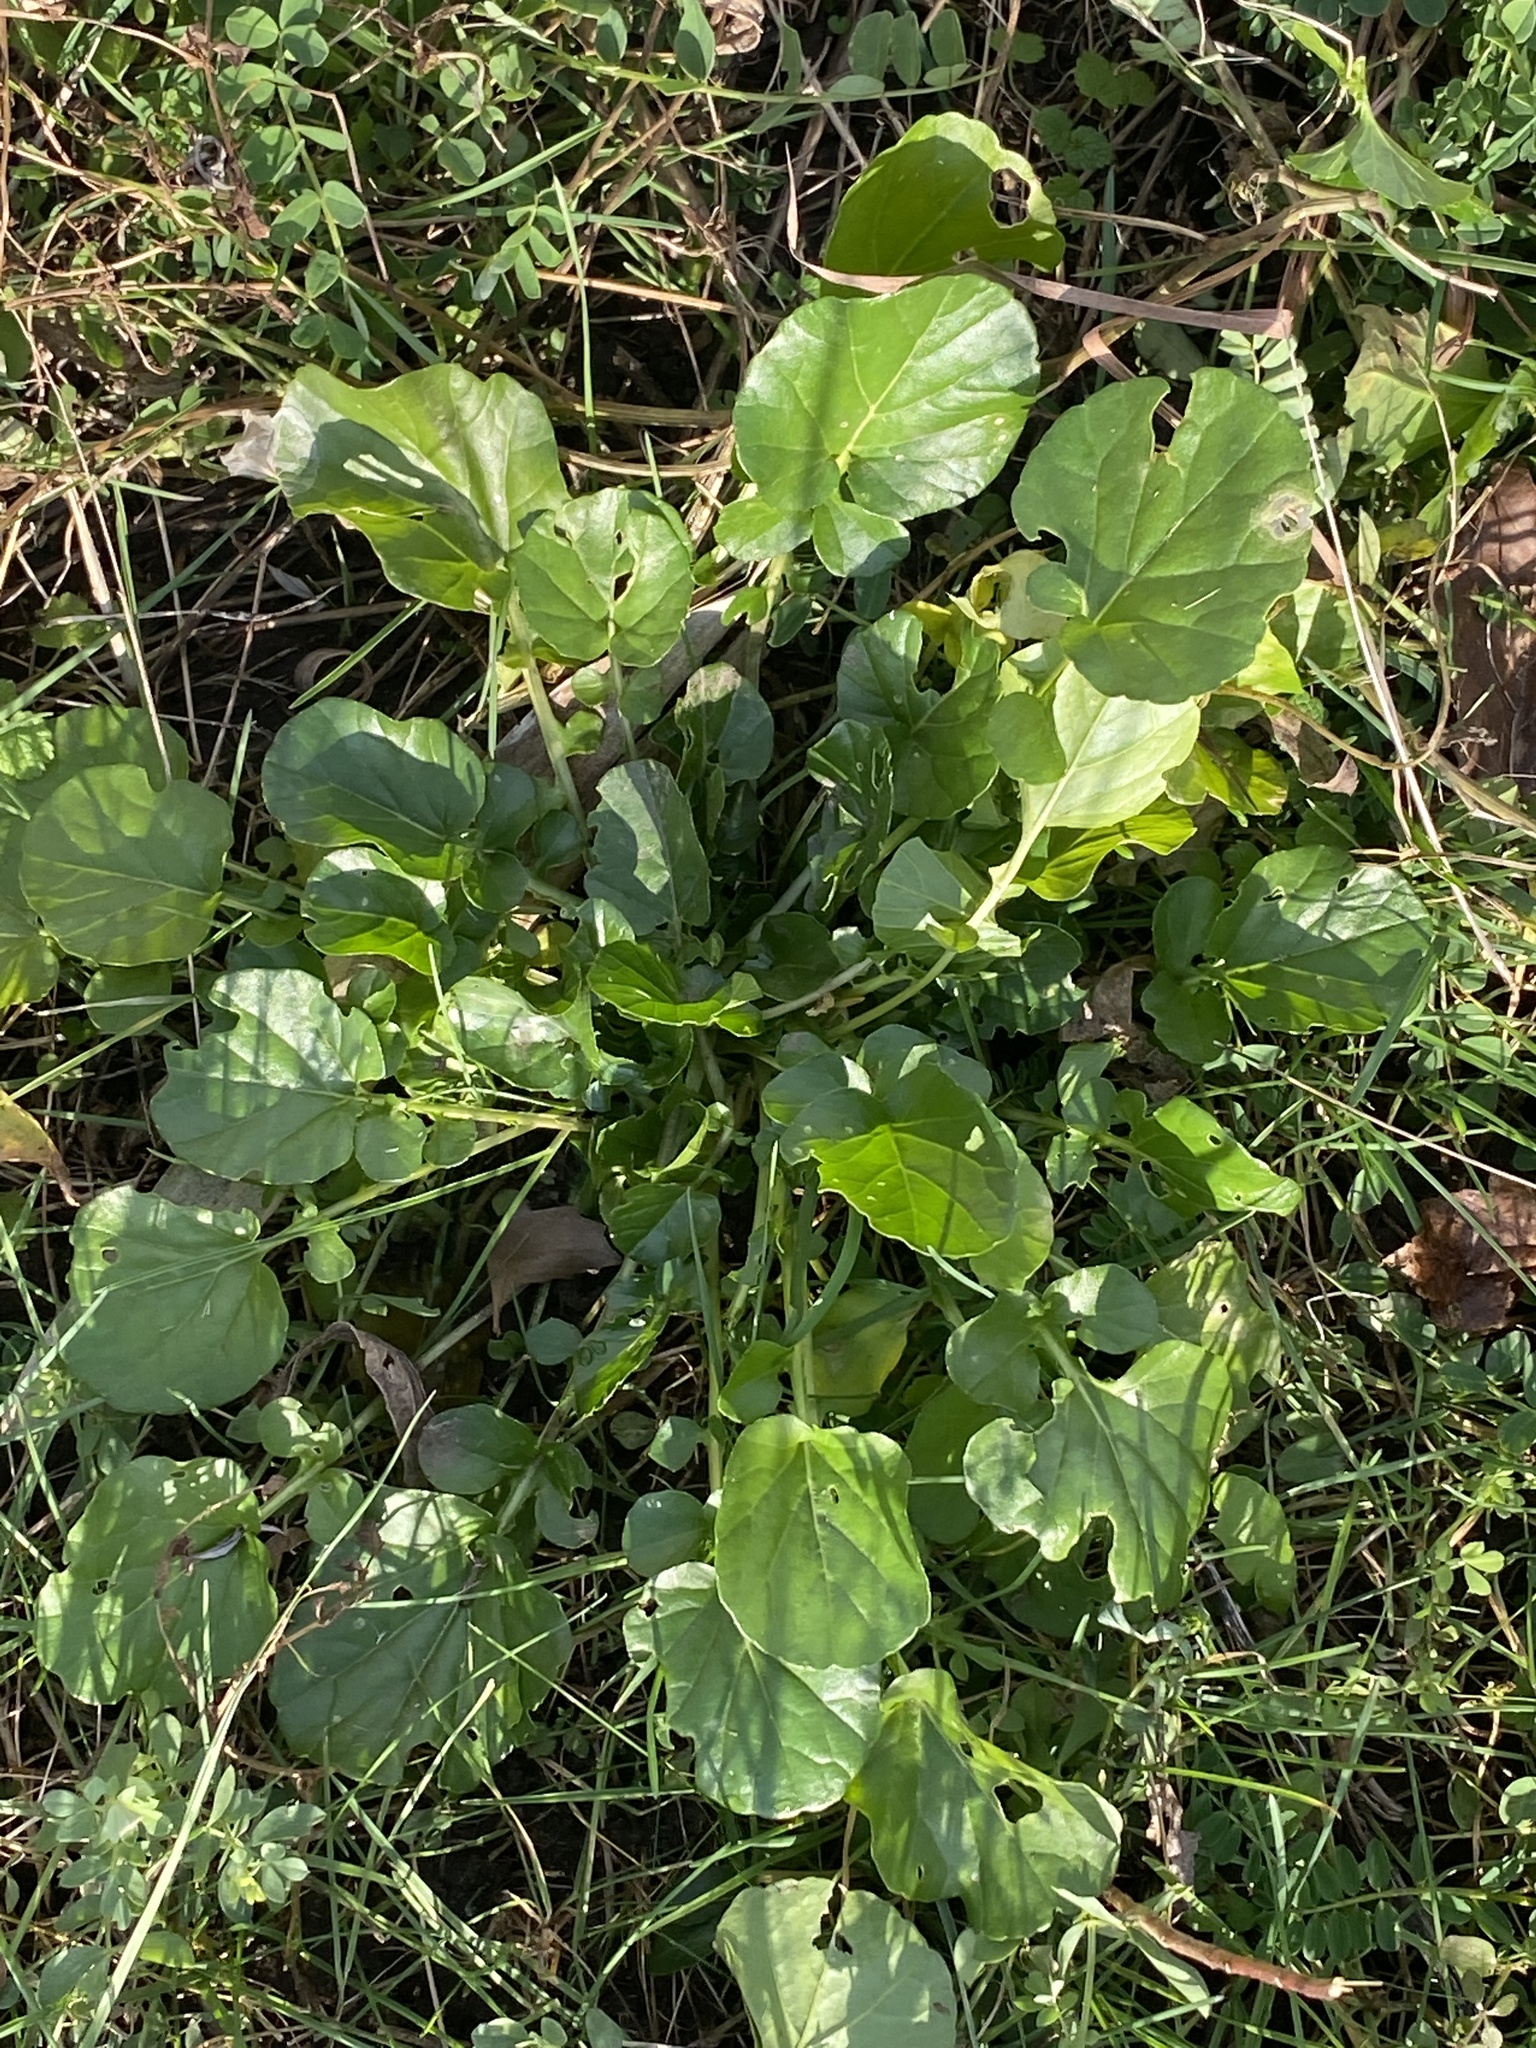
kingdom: Plantae
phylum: Tracheophyta
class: Magnoliopsida
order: Brassicales
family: Brassicaceae
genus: Barbarea
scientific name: Barbarea vulgaris
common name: Cressy-greens
